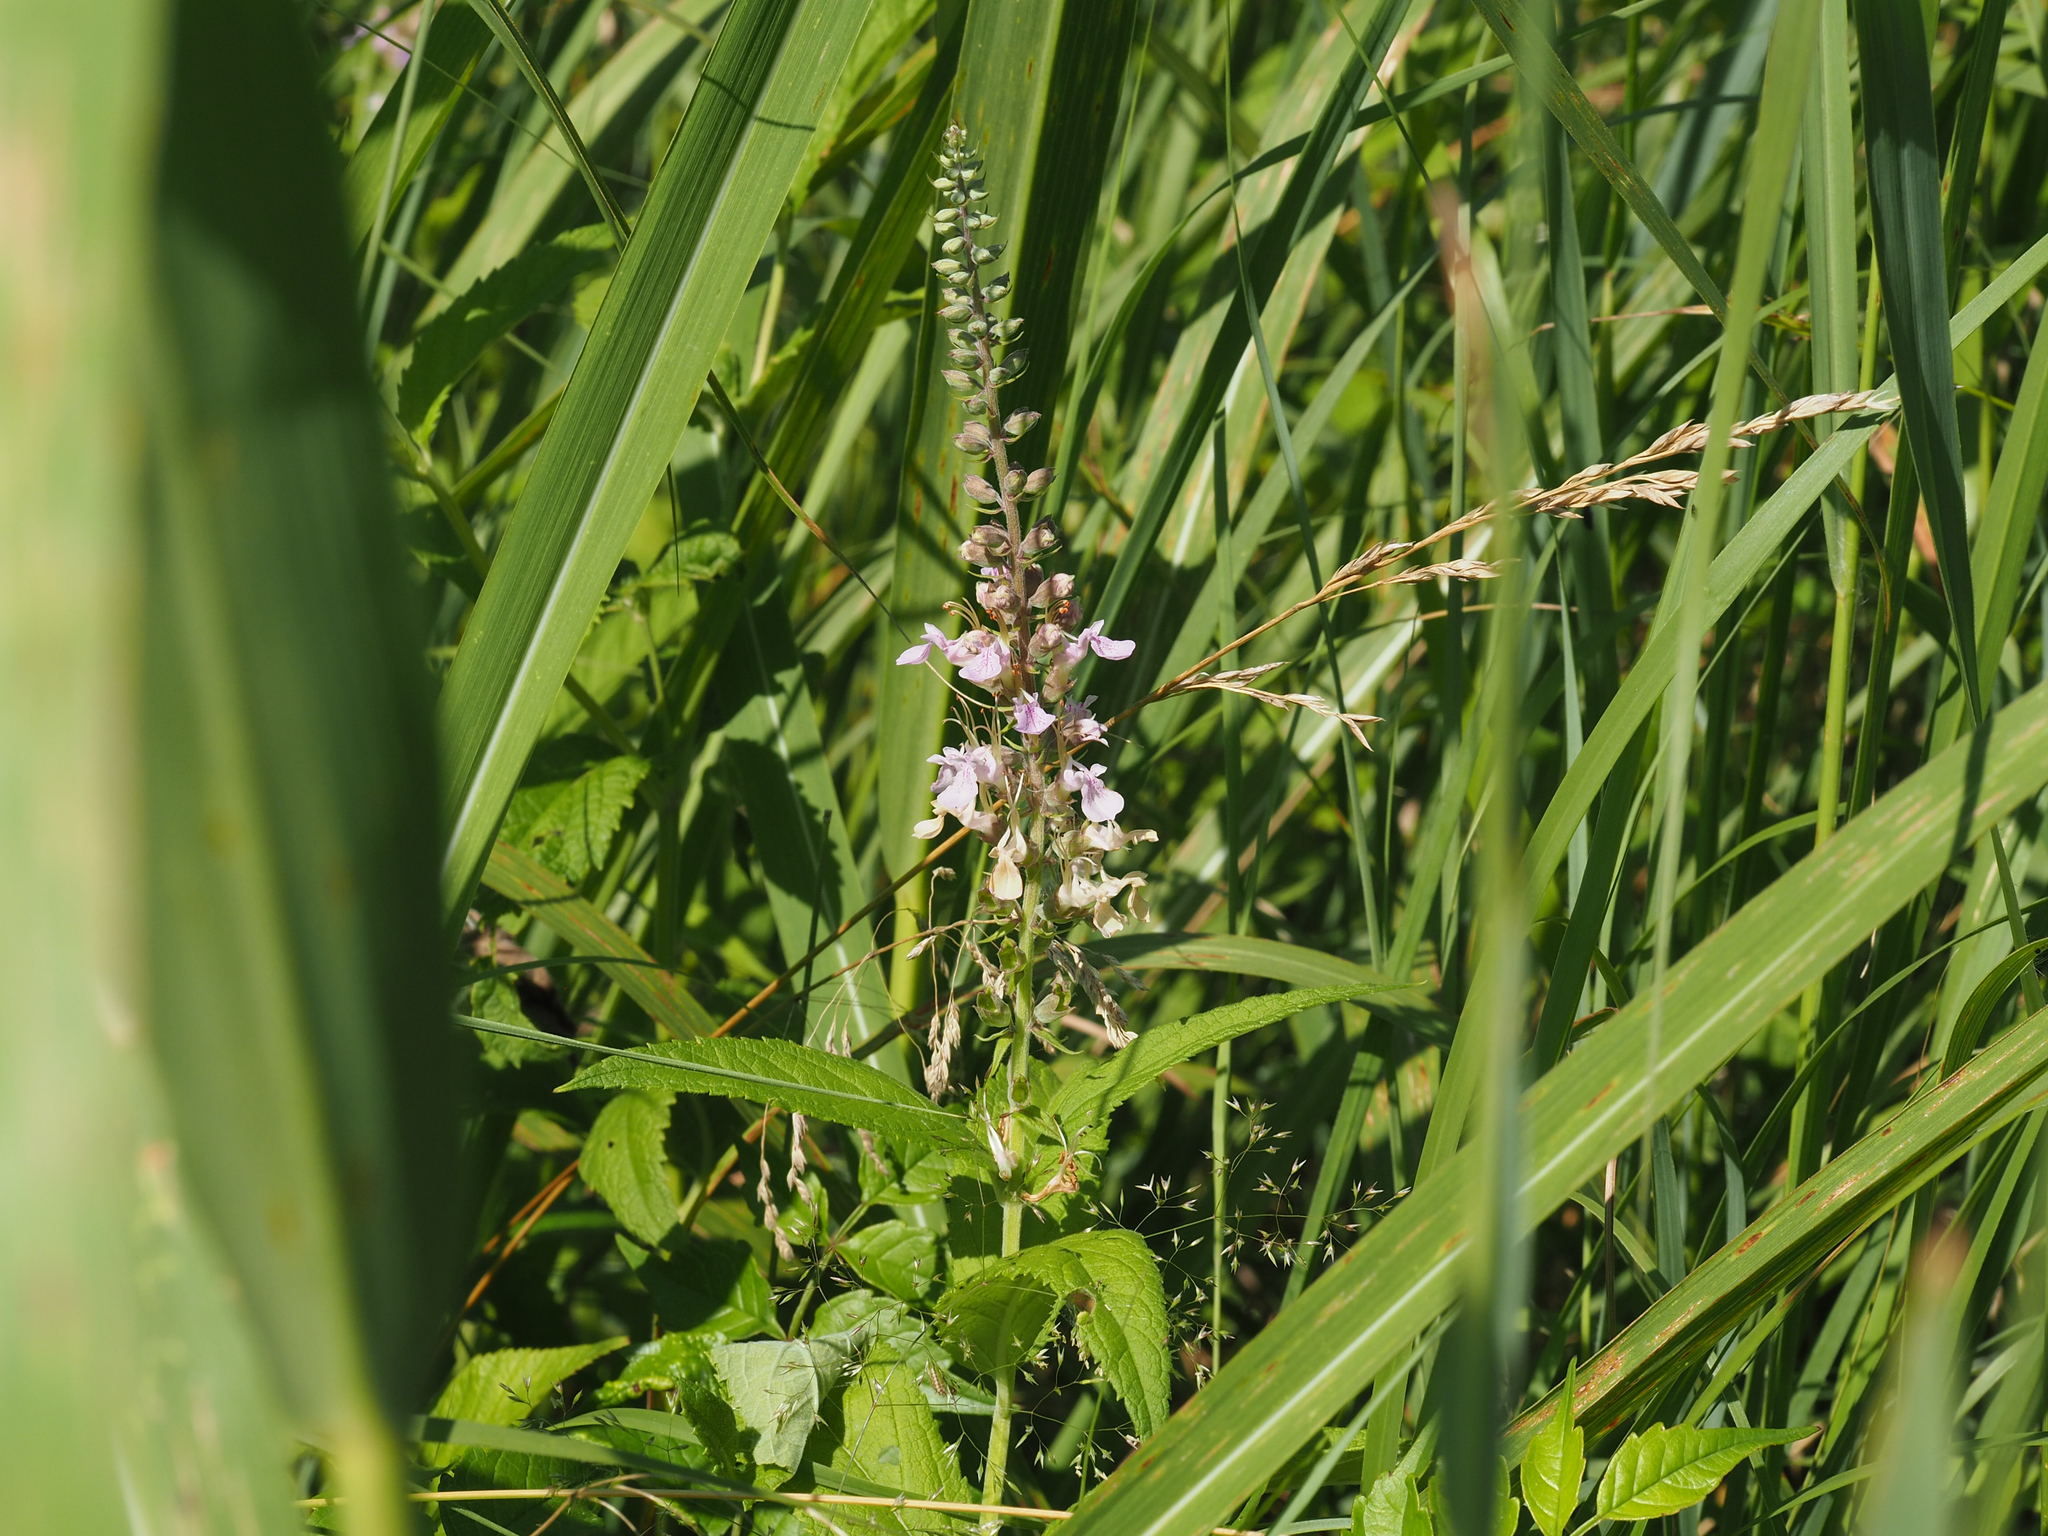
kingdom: Plantae
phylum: Tracheophyta
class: Magnoliopsida
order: Lamiales
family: Lamiaceae
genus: Teucrium
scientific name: Teucrium canadense
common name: American germander
